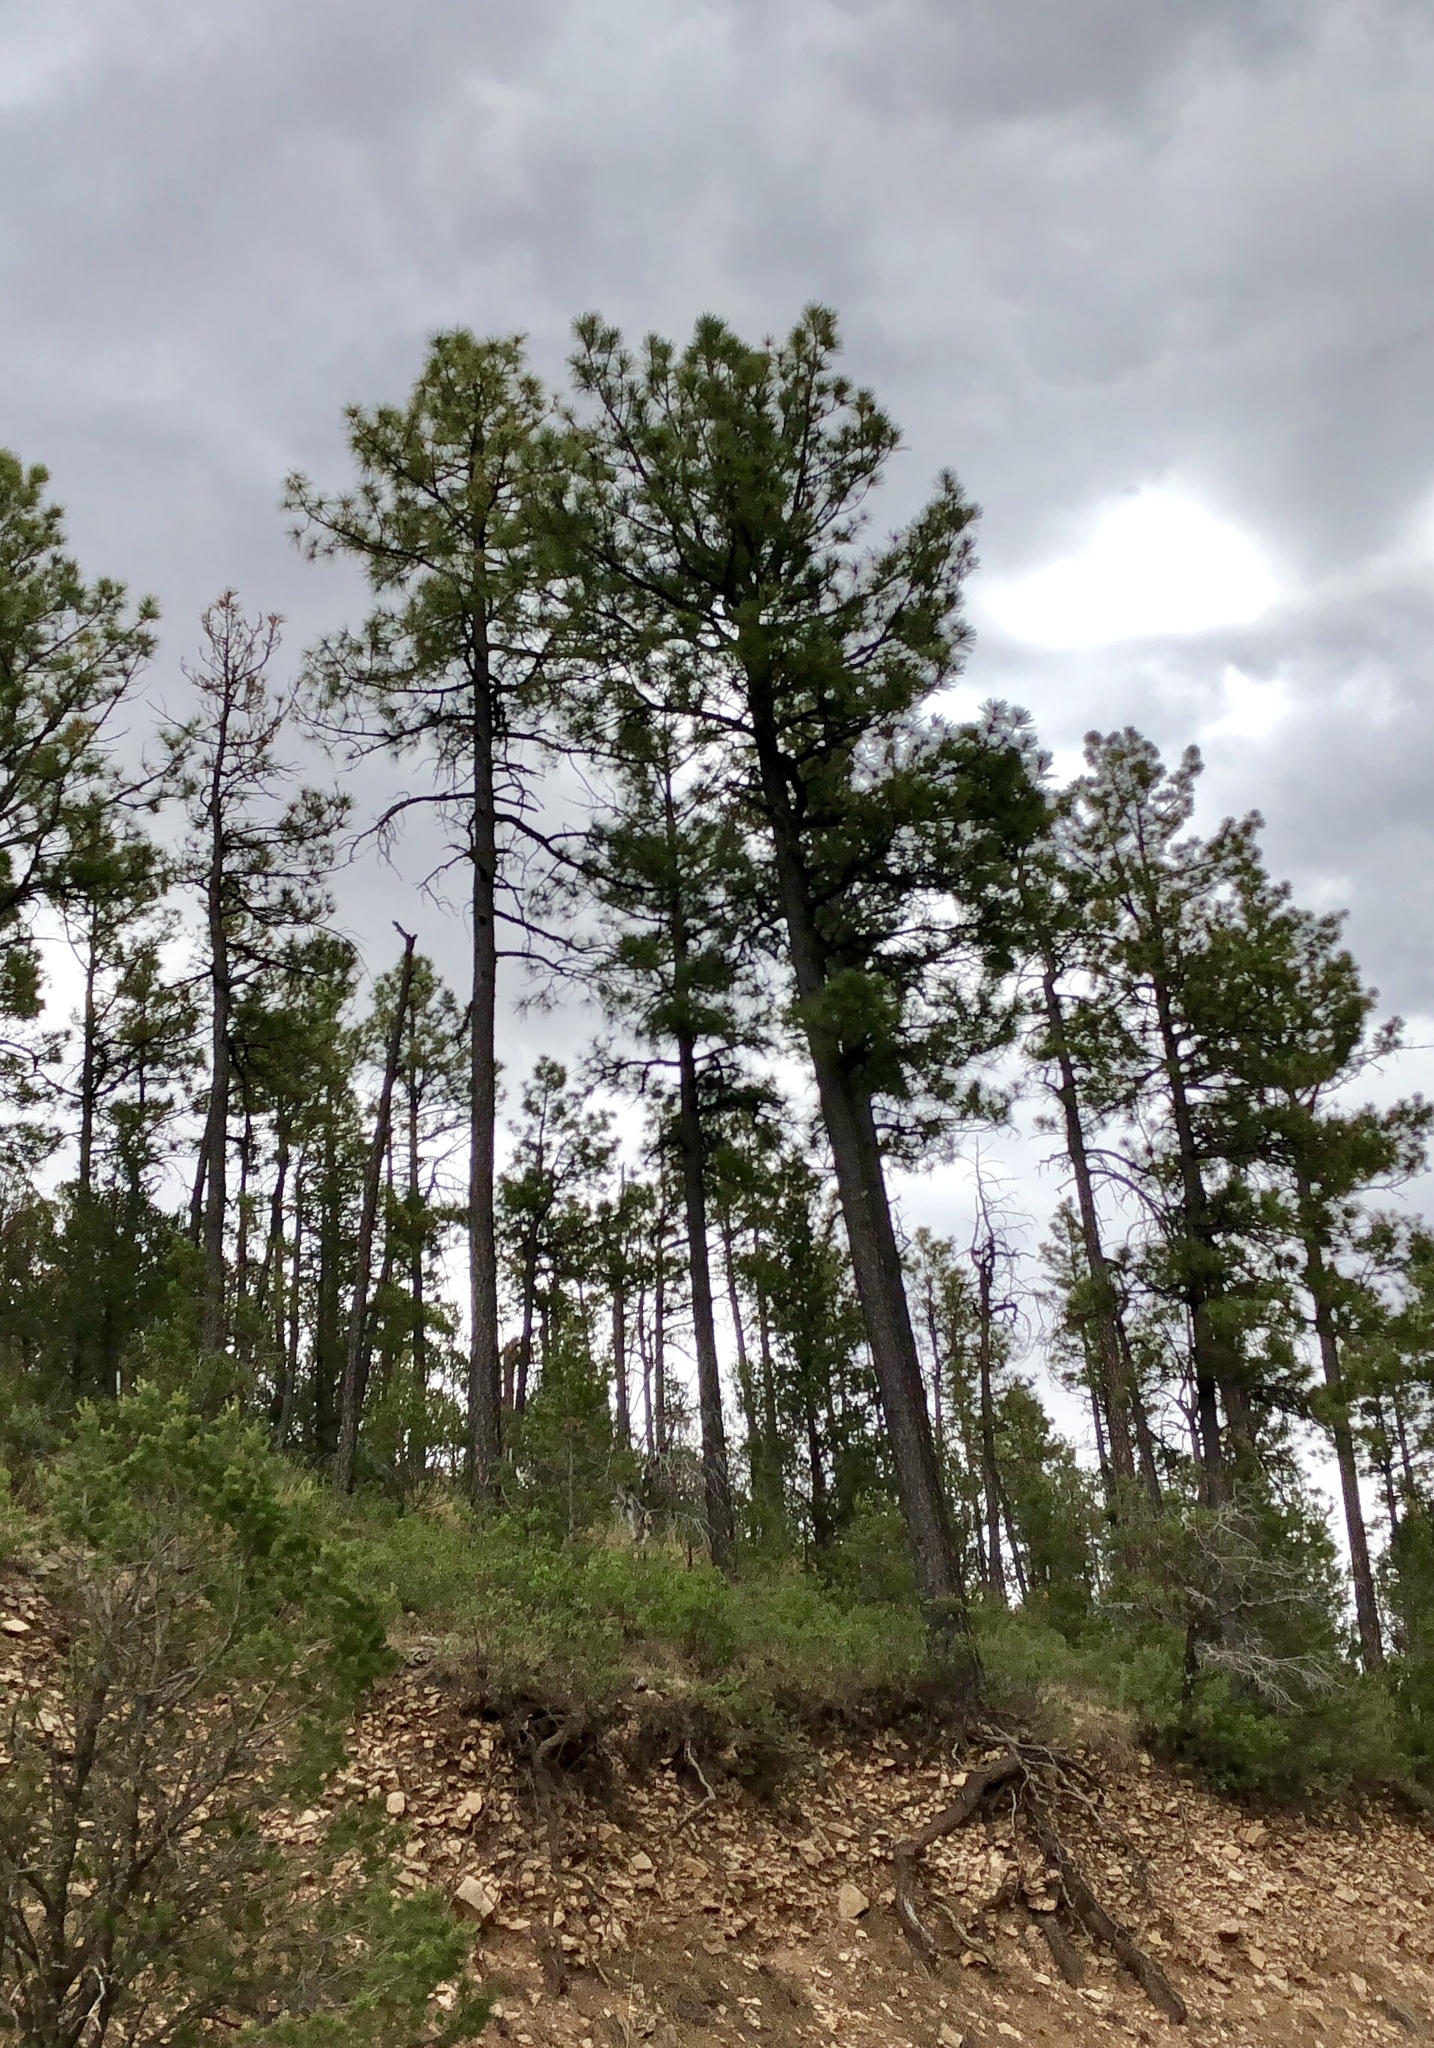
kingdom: Plantae
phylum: Tracheophyta
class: Pinopsida
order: Pinales
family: Pinaceae
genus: Pinus
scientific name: Pinus ponderosa
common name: Western yellow-pine
